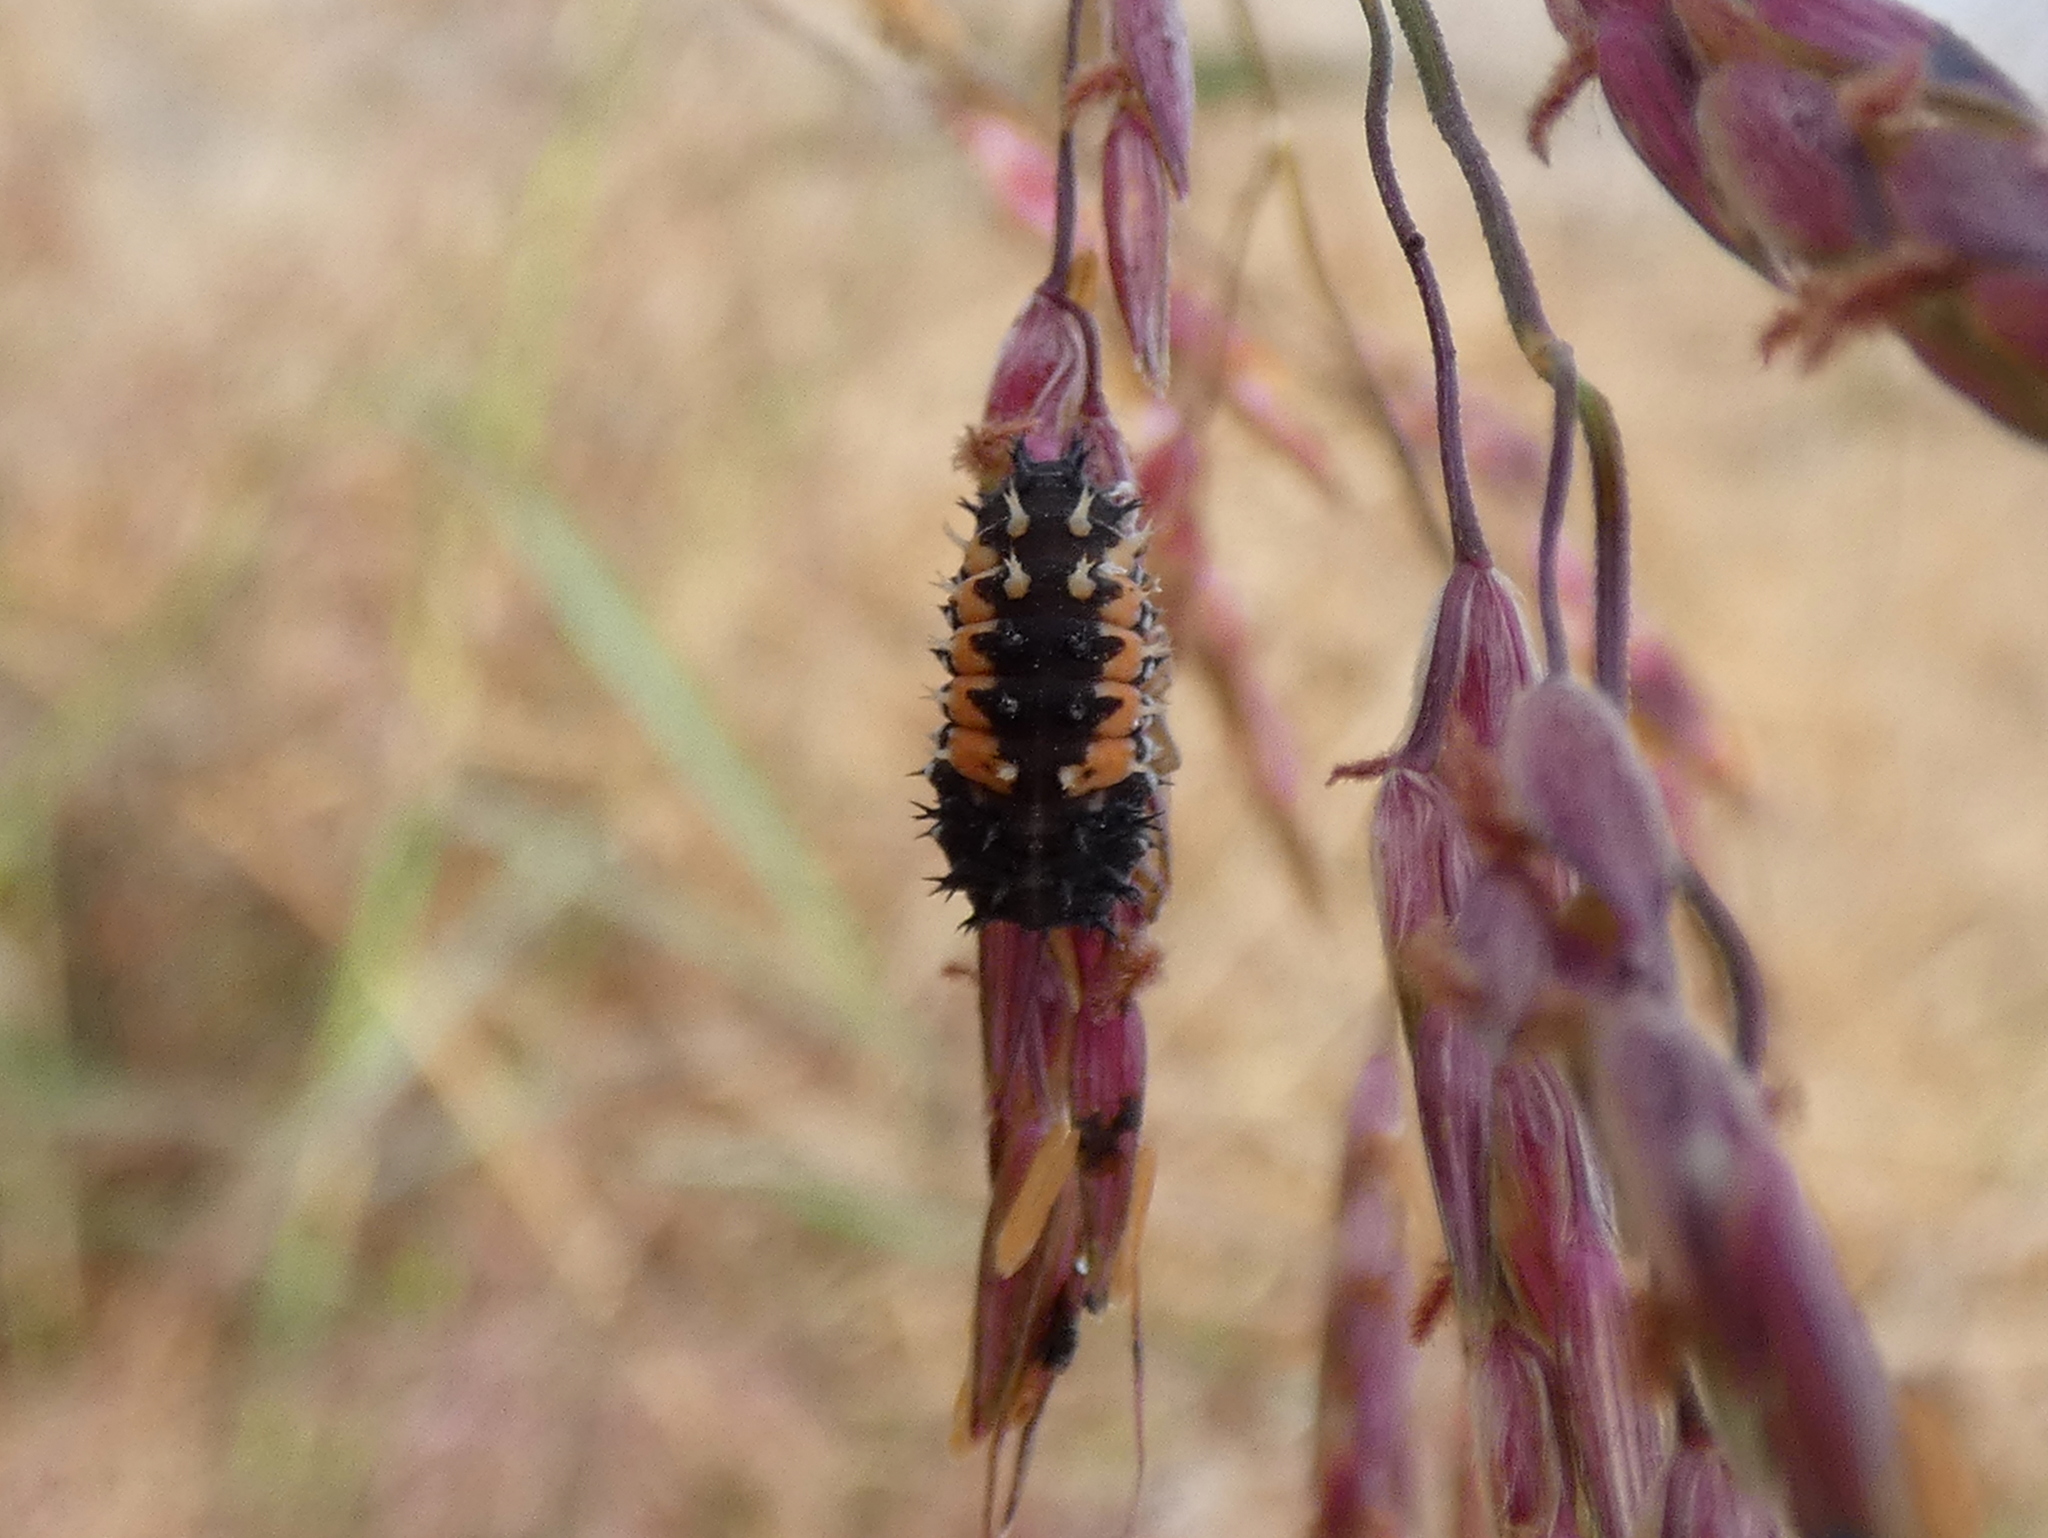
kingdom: Animalia
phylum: Arthropoda
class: Insecta
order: Coleoptera
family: Coccinellidae
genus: Harmonia
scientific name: Harmonia axyridis
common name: Harlequin ladybird
